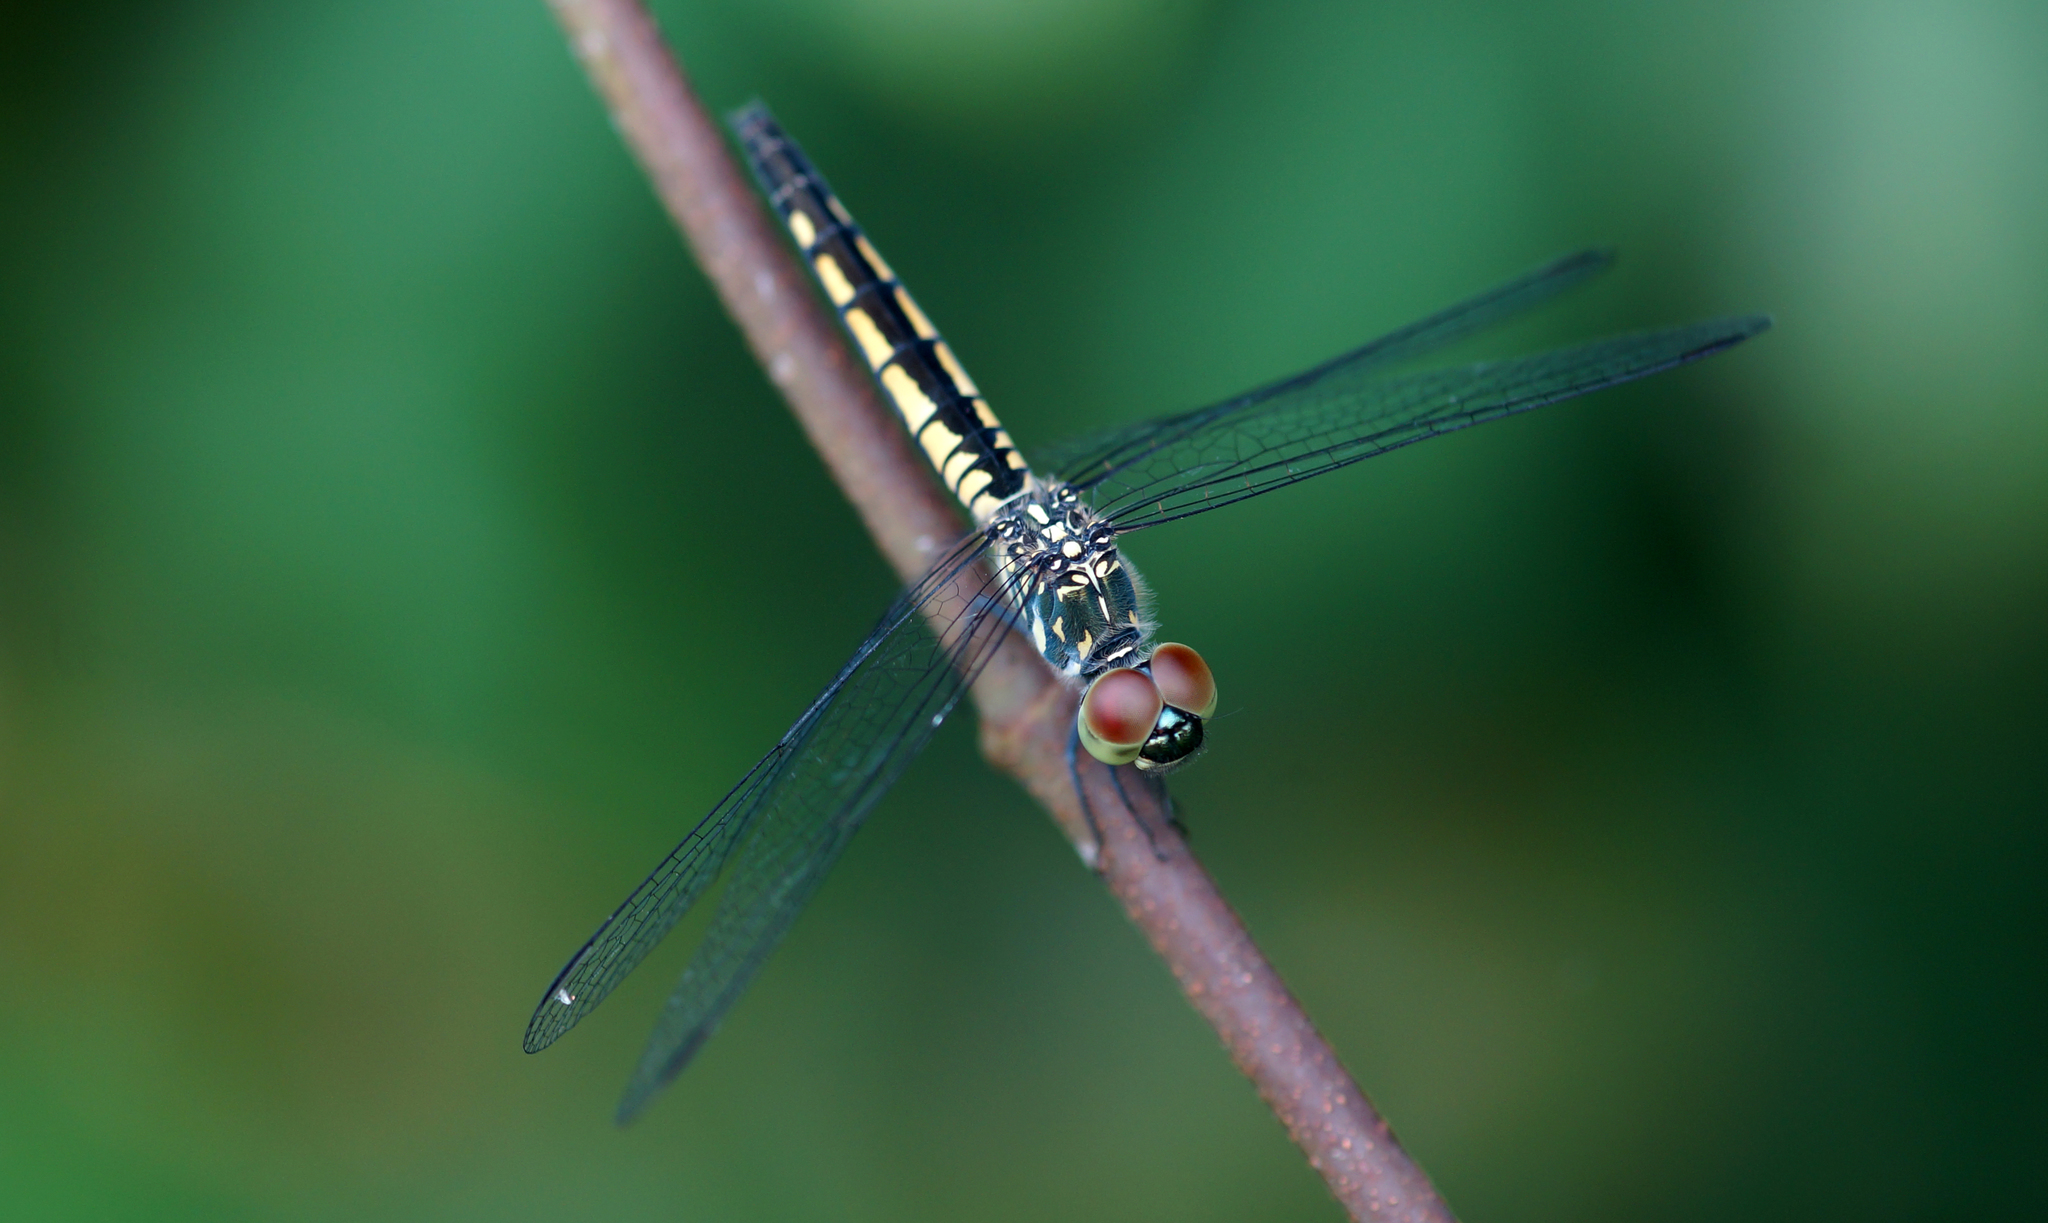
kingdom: Animalia
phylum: Arthropoda
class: Insecta
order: Odonata
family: Libellulidae
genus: Diplacodes
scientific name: Diplacodes nebulosa
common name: Black-tipped percher
